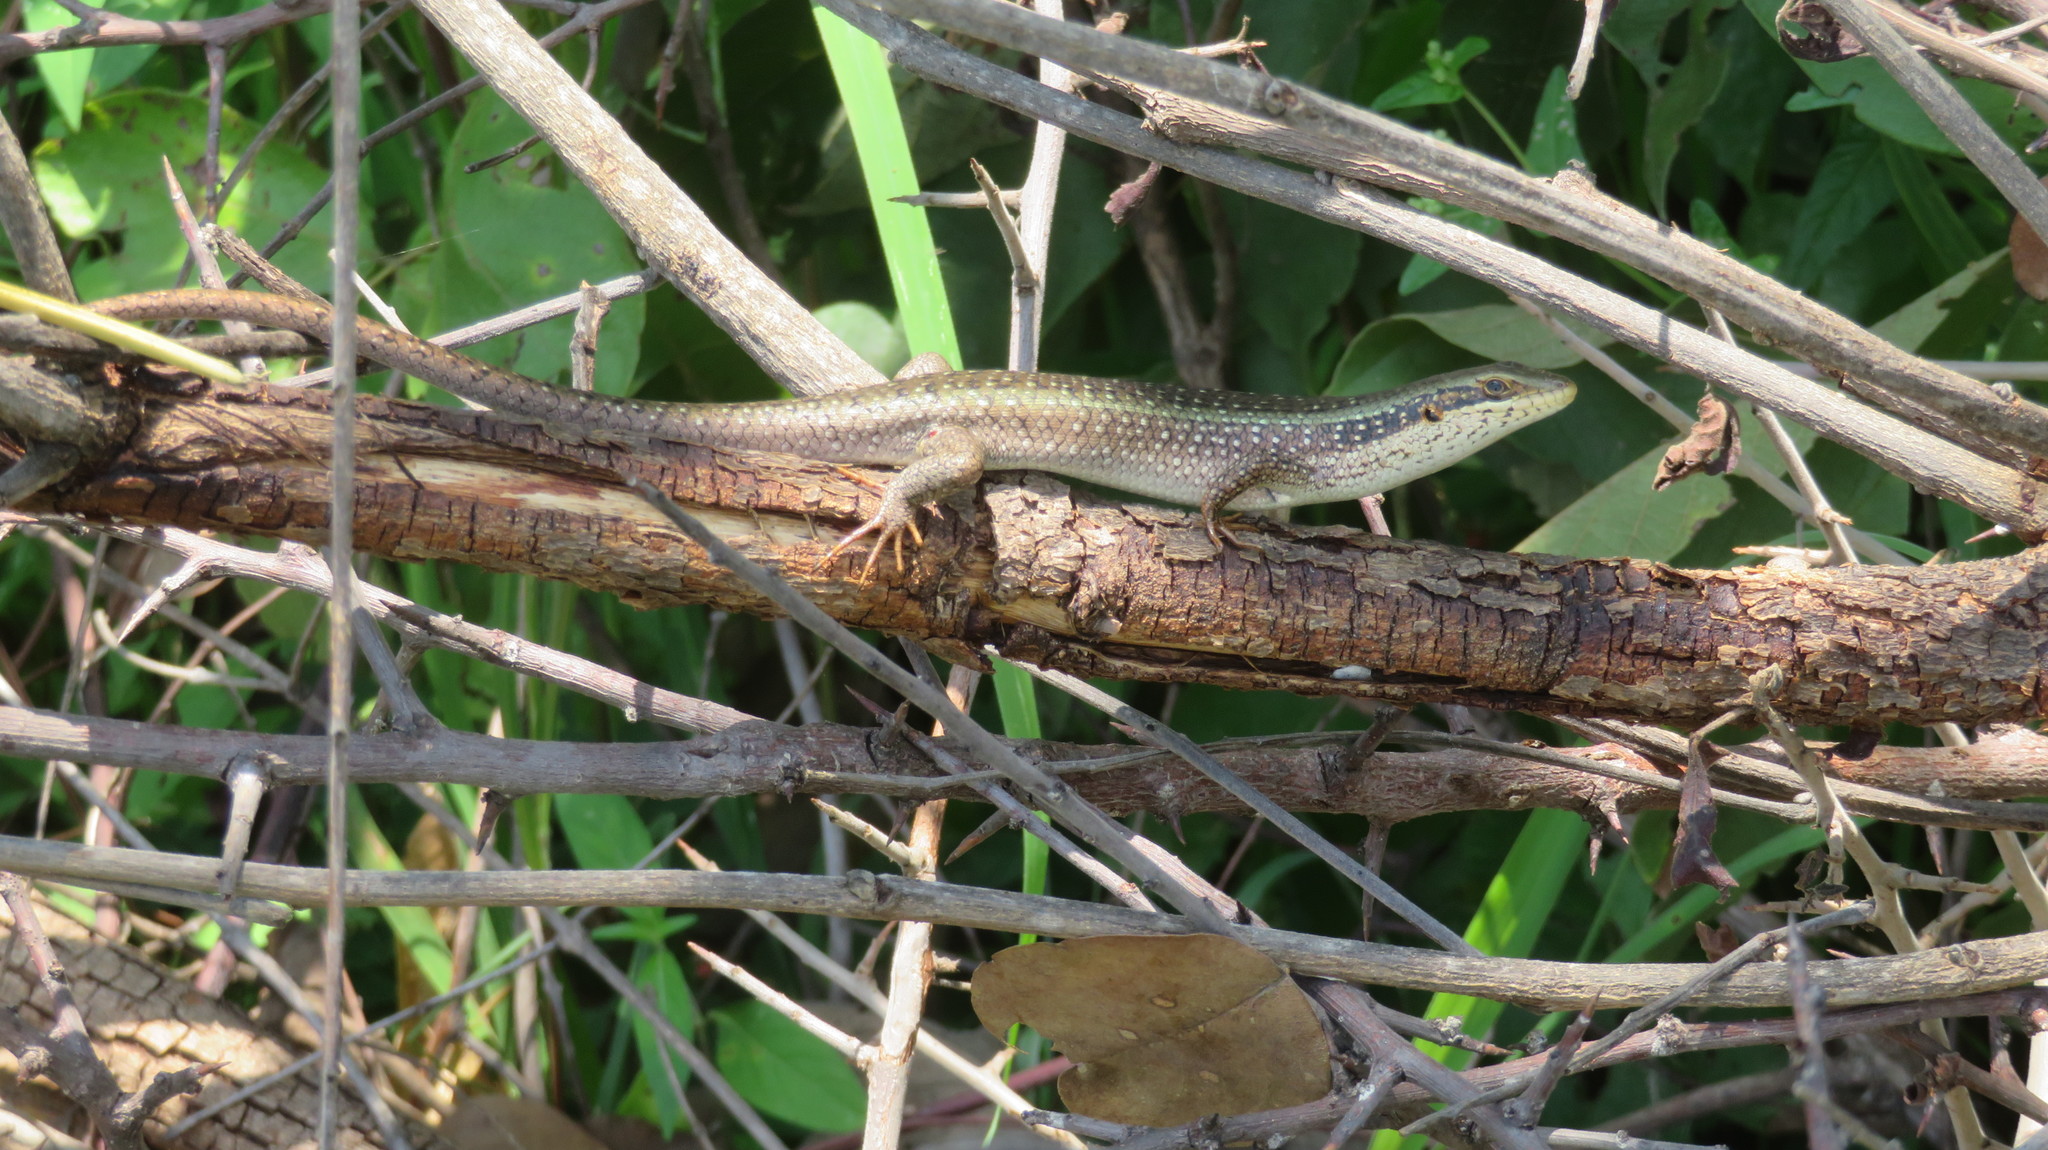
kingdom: Animalia
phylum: Chordata
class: Squamata
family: Scincidae
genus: Trachylepis
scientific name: Trachylepis planifrons
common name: Tree skink
